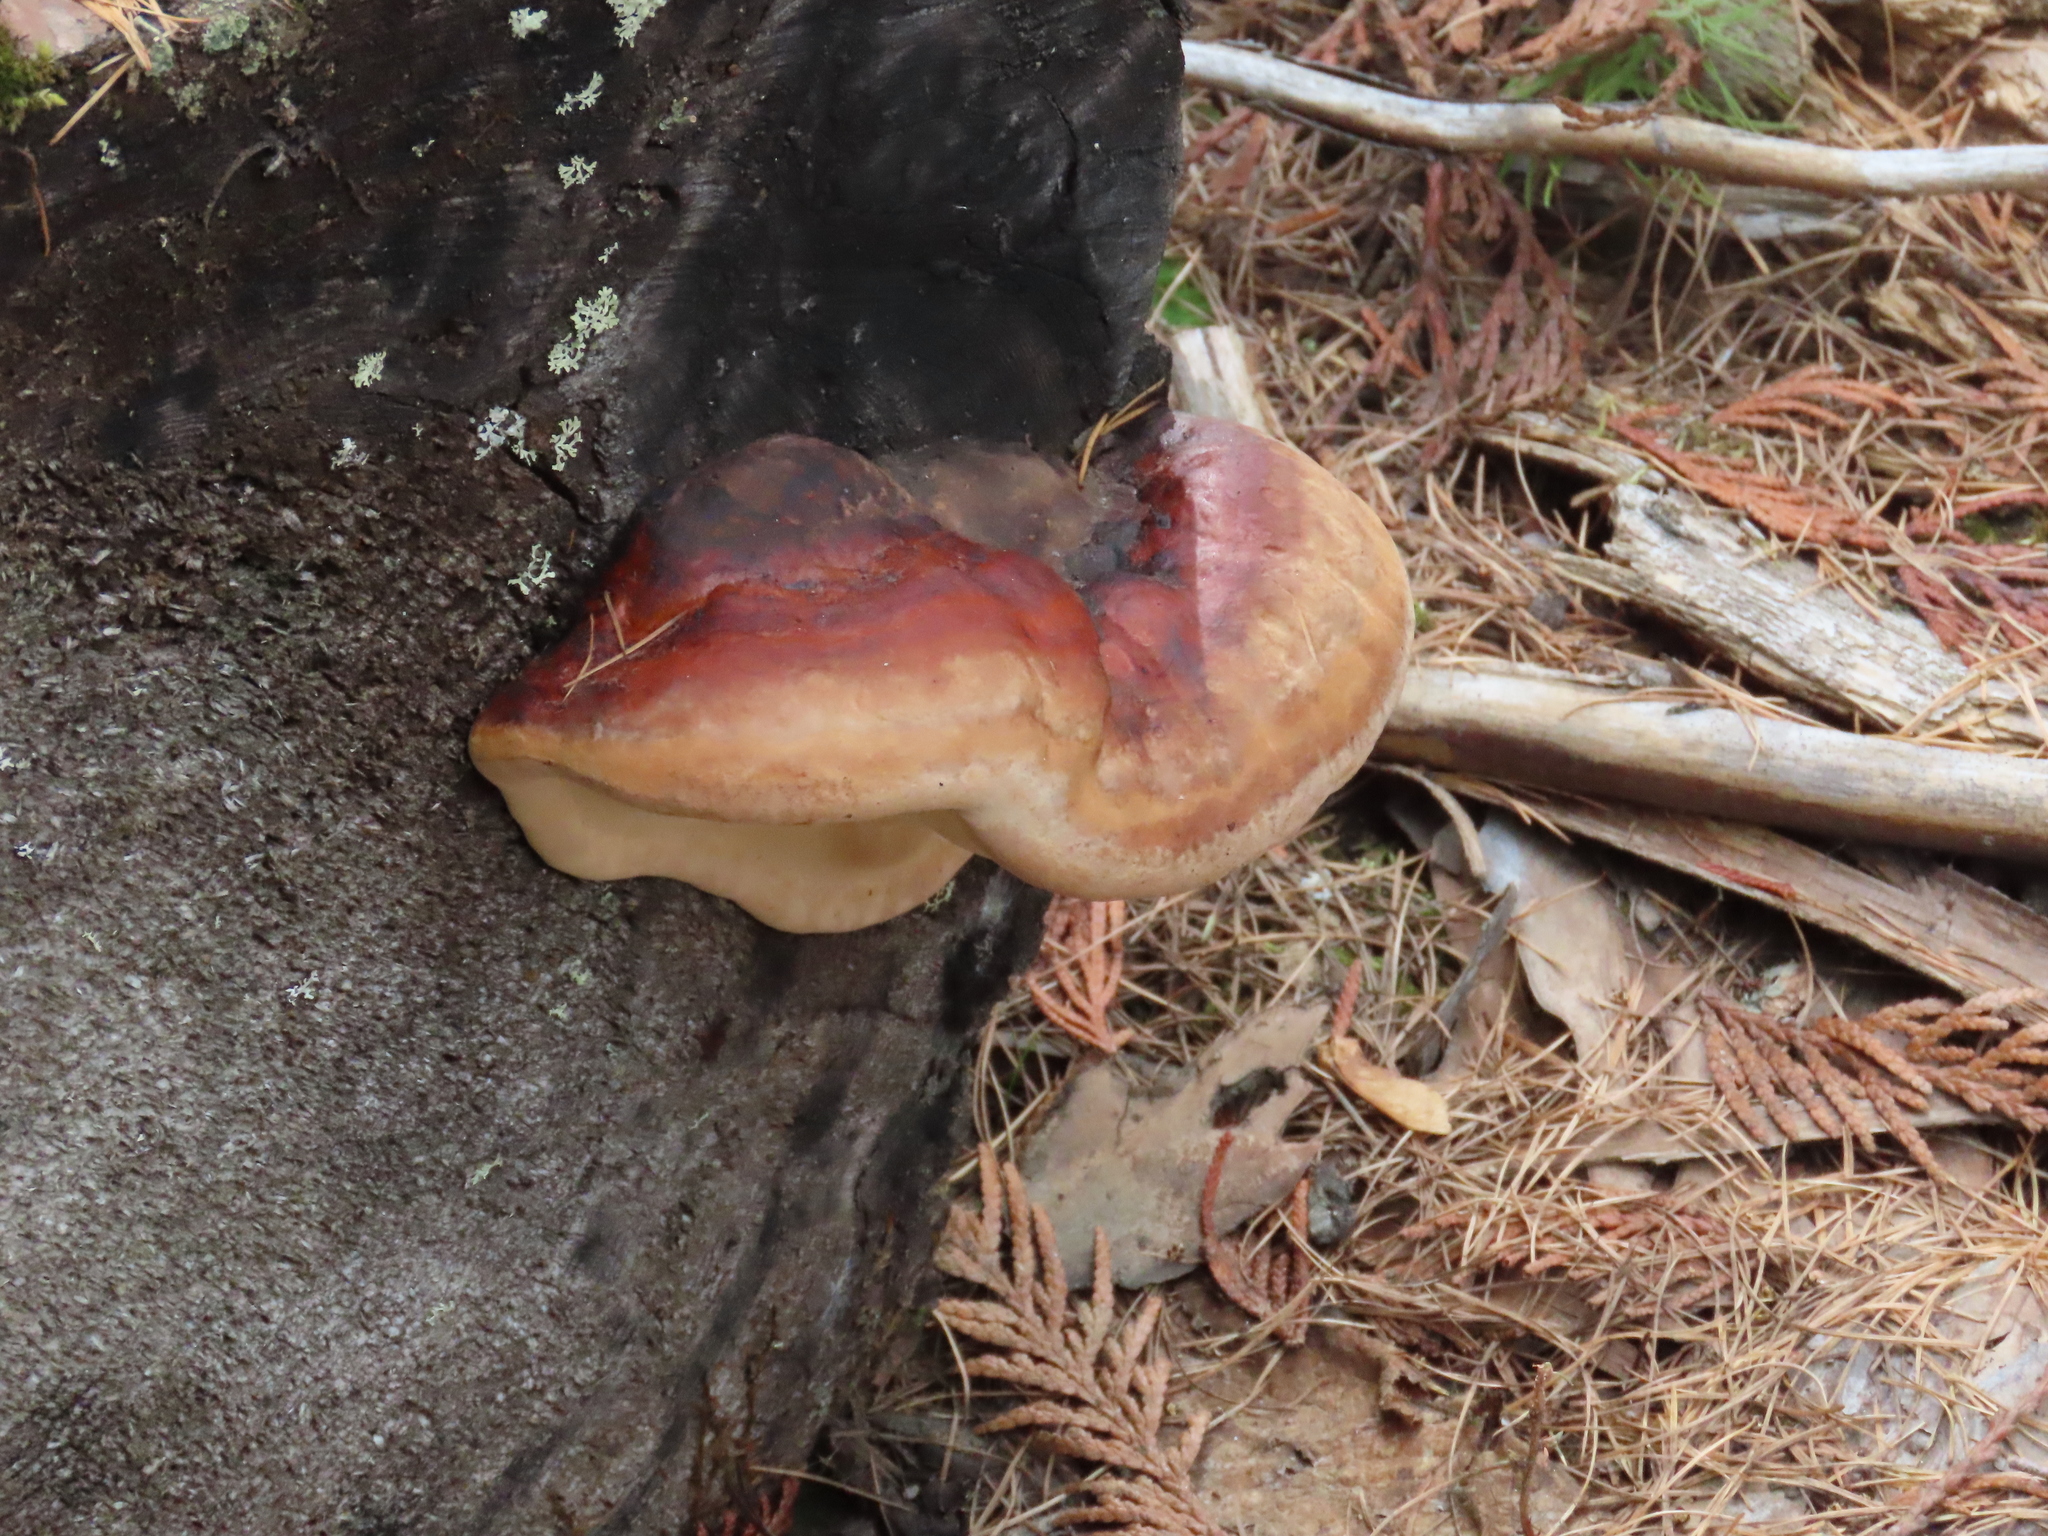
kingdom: Fungi
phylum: Basidiomycota
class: Agaricomycetes
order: Polyporales
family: Fomitopsidaceae
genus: Fomitopsis
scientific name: Fomitopsis mounceae
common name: Northern red belt
